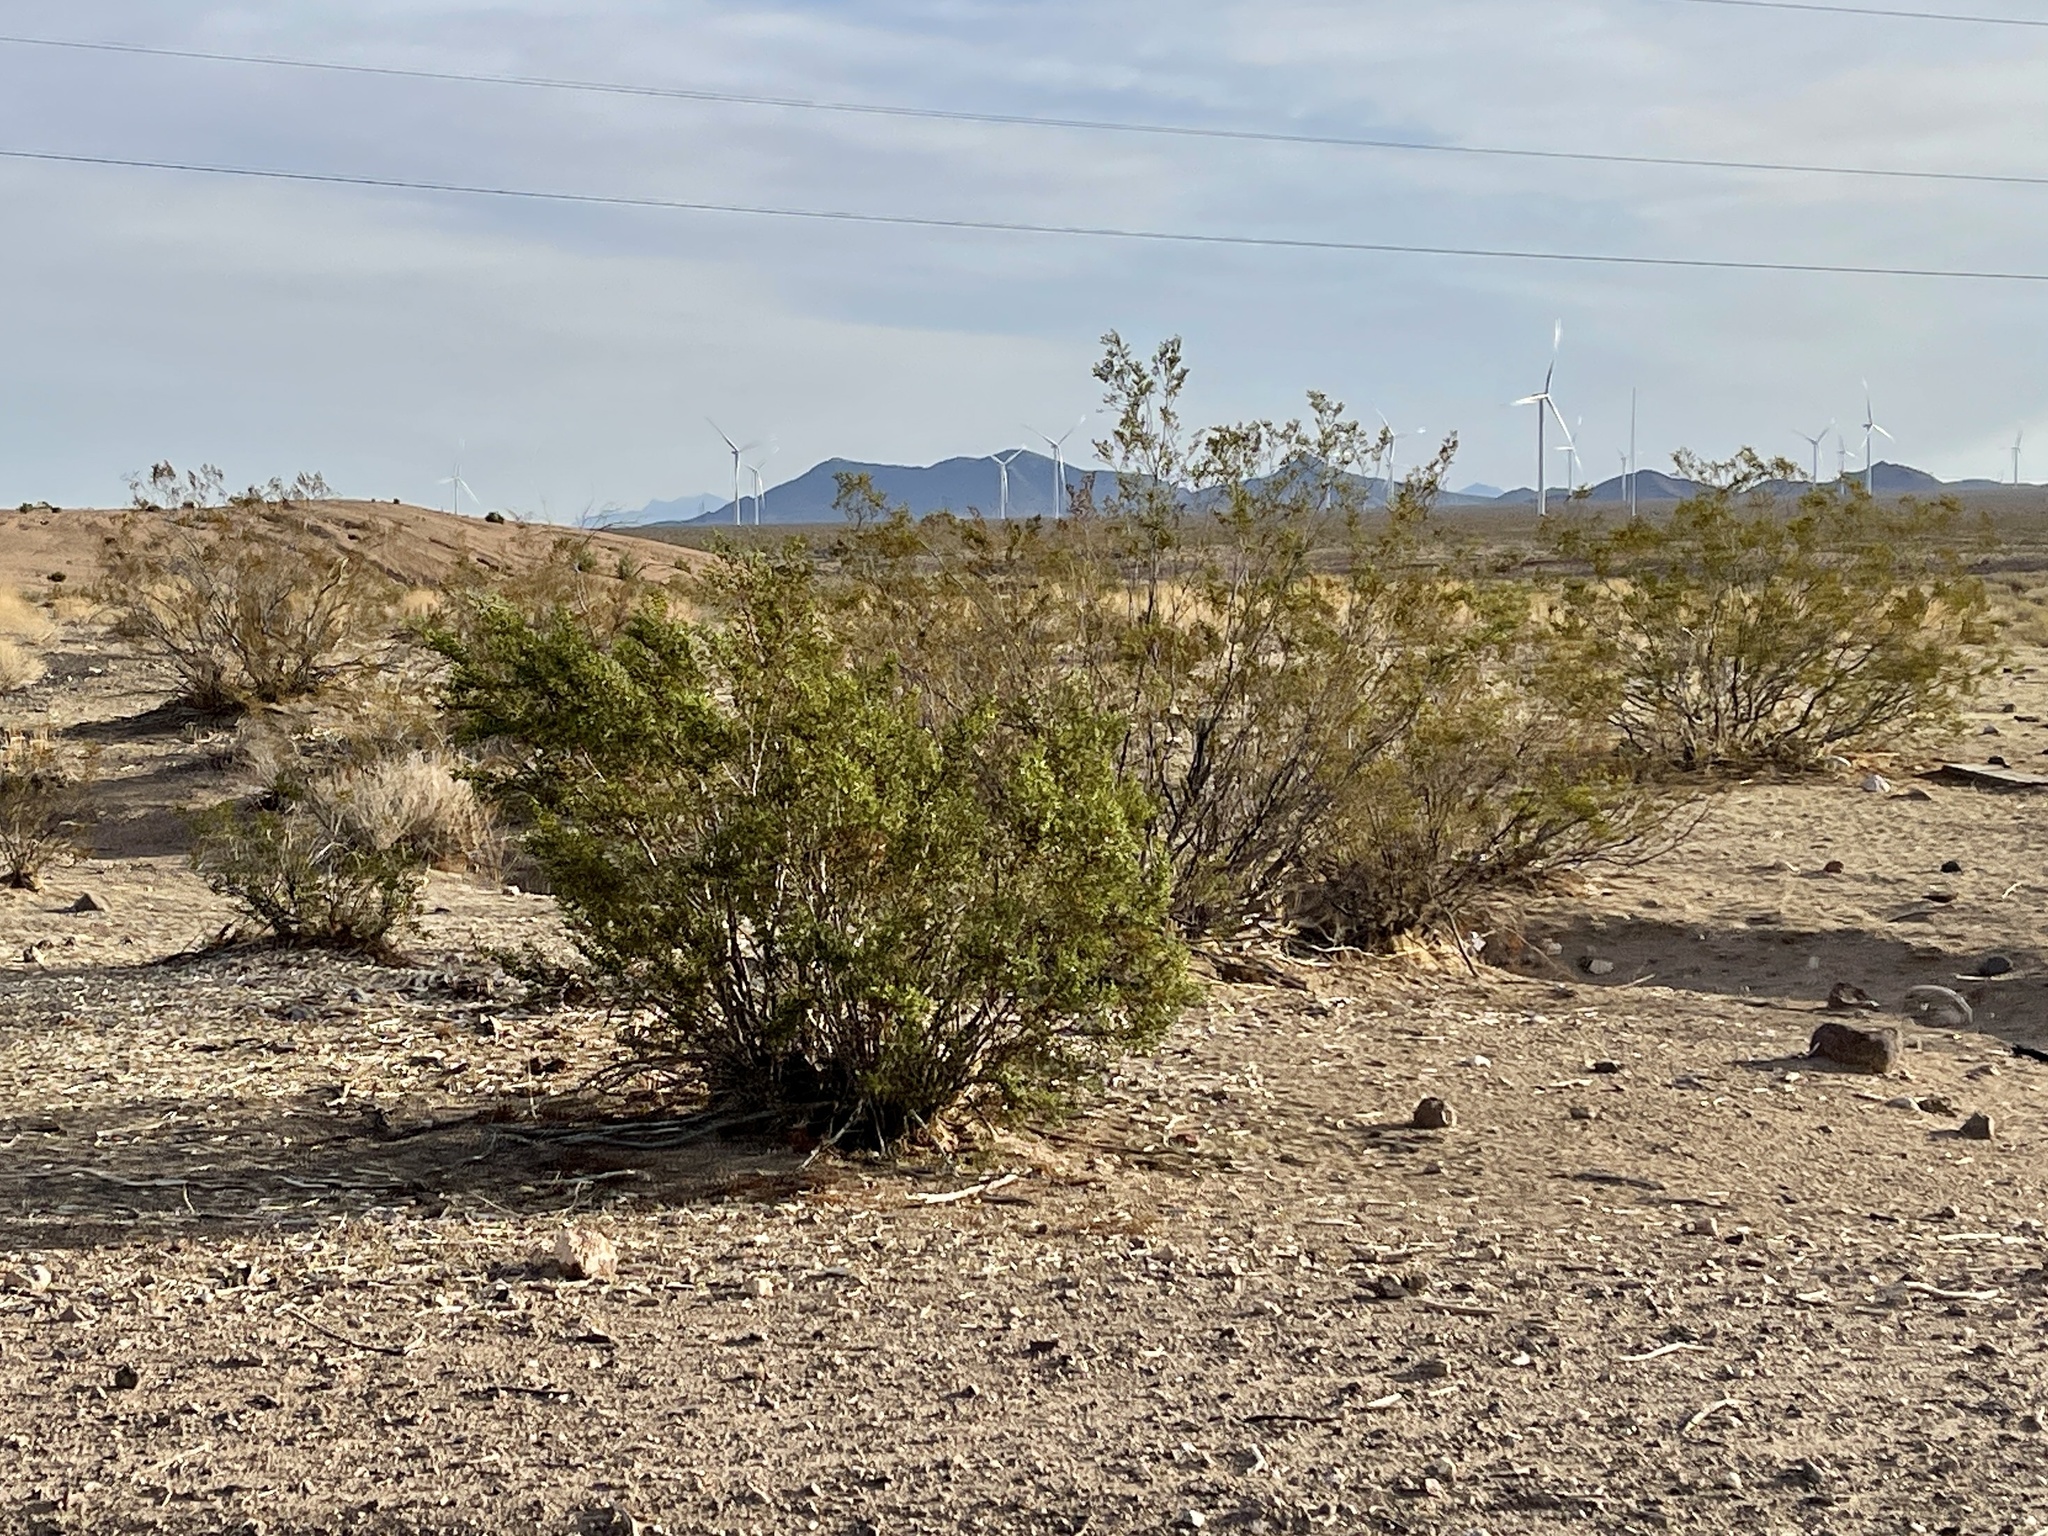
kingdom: Plantae
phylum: Tracheophyta
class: Magnoliopsida
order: Zygophyllales
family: Zygophyllaceae
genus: Larrea
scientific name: Larrea tridentata
